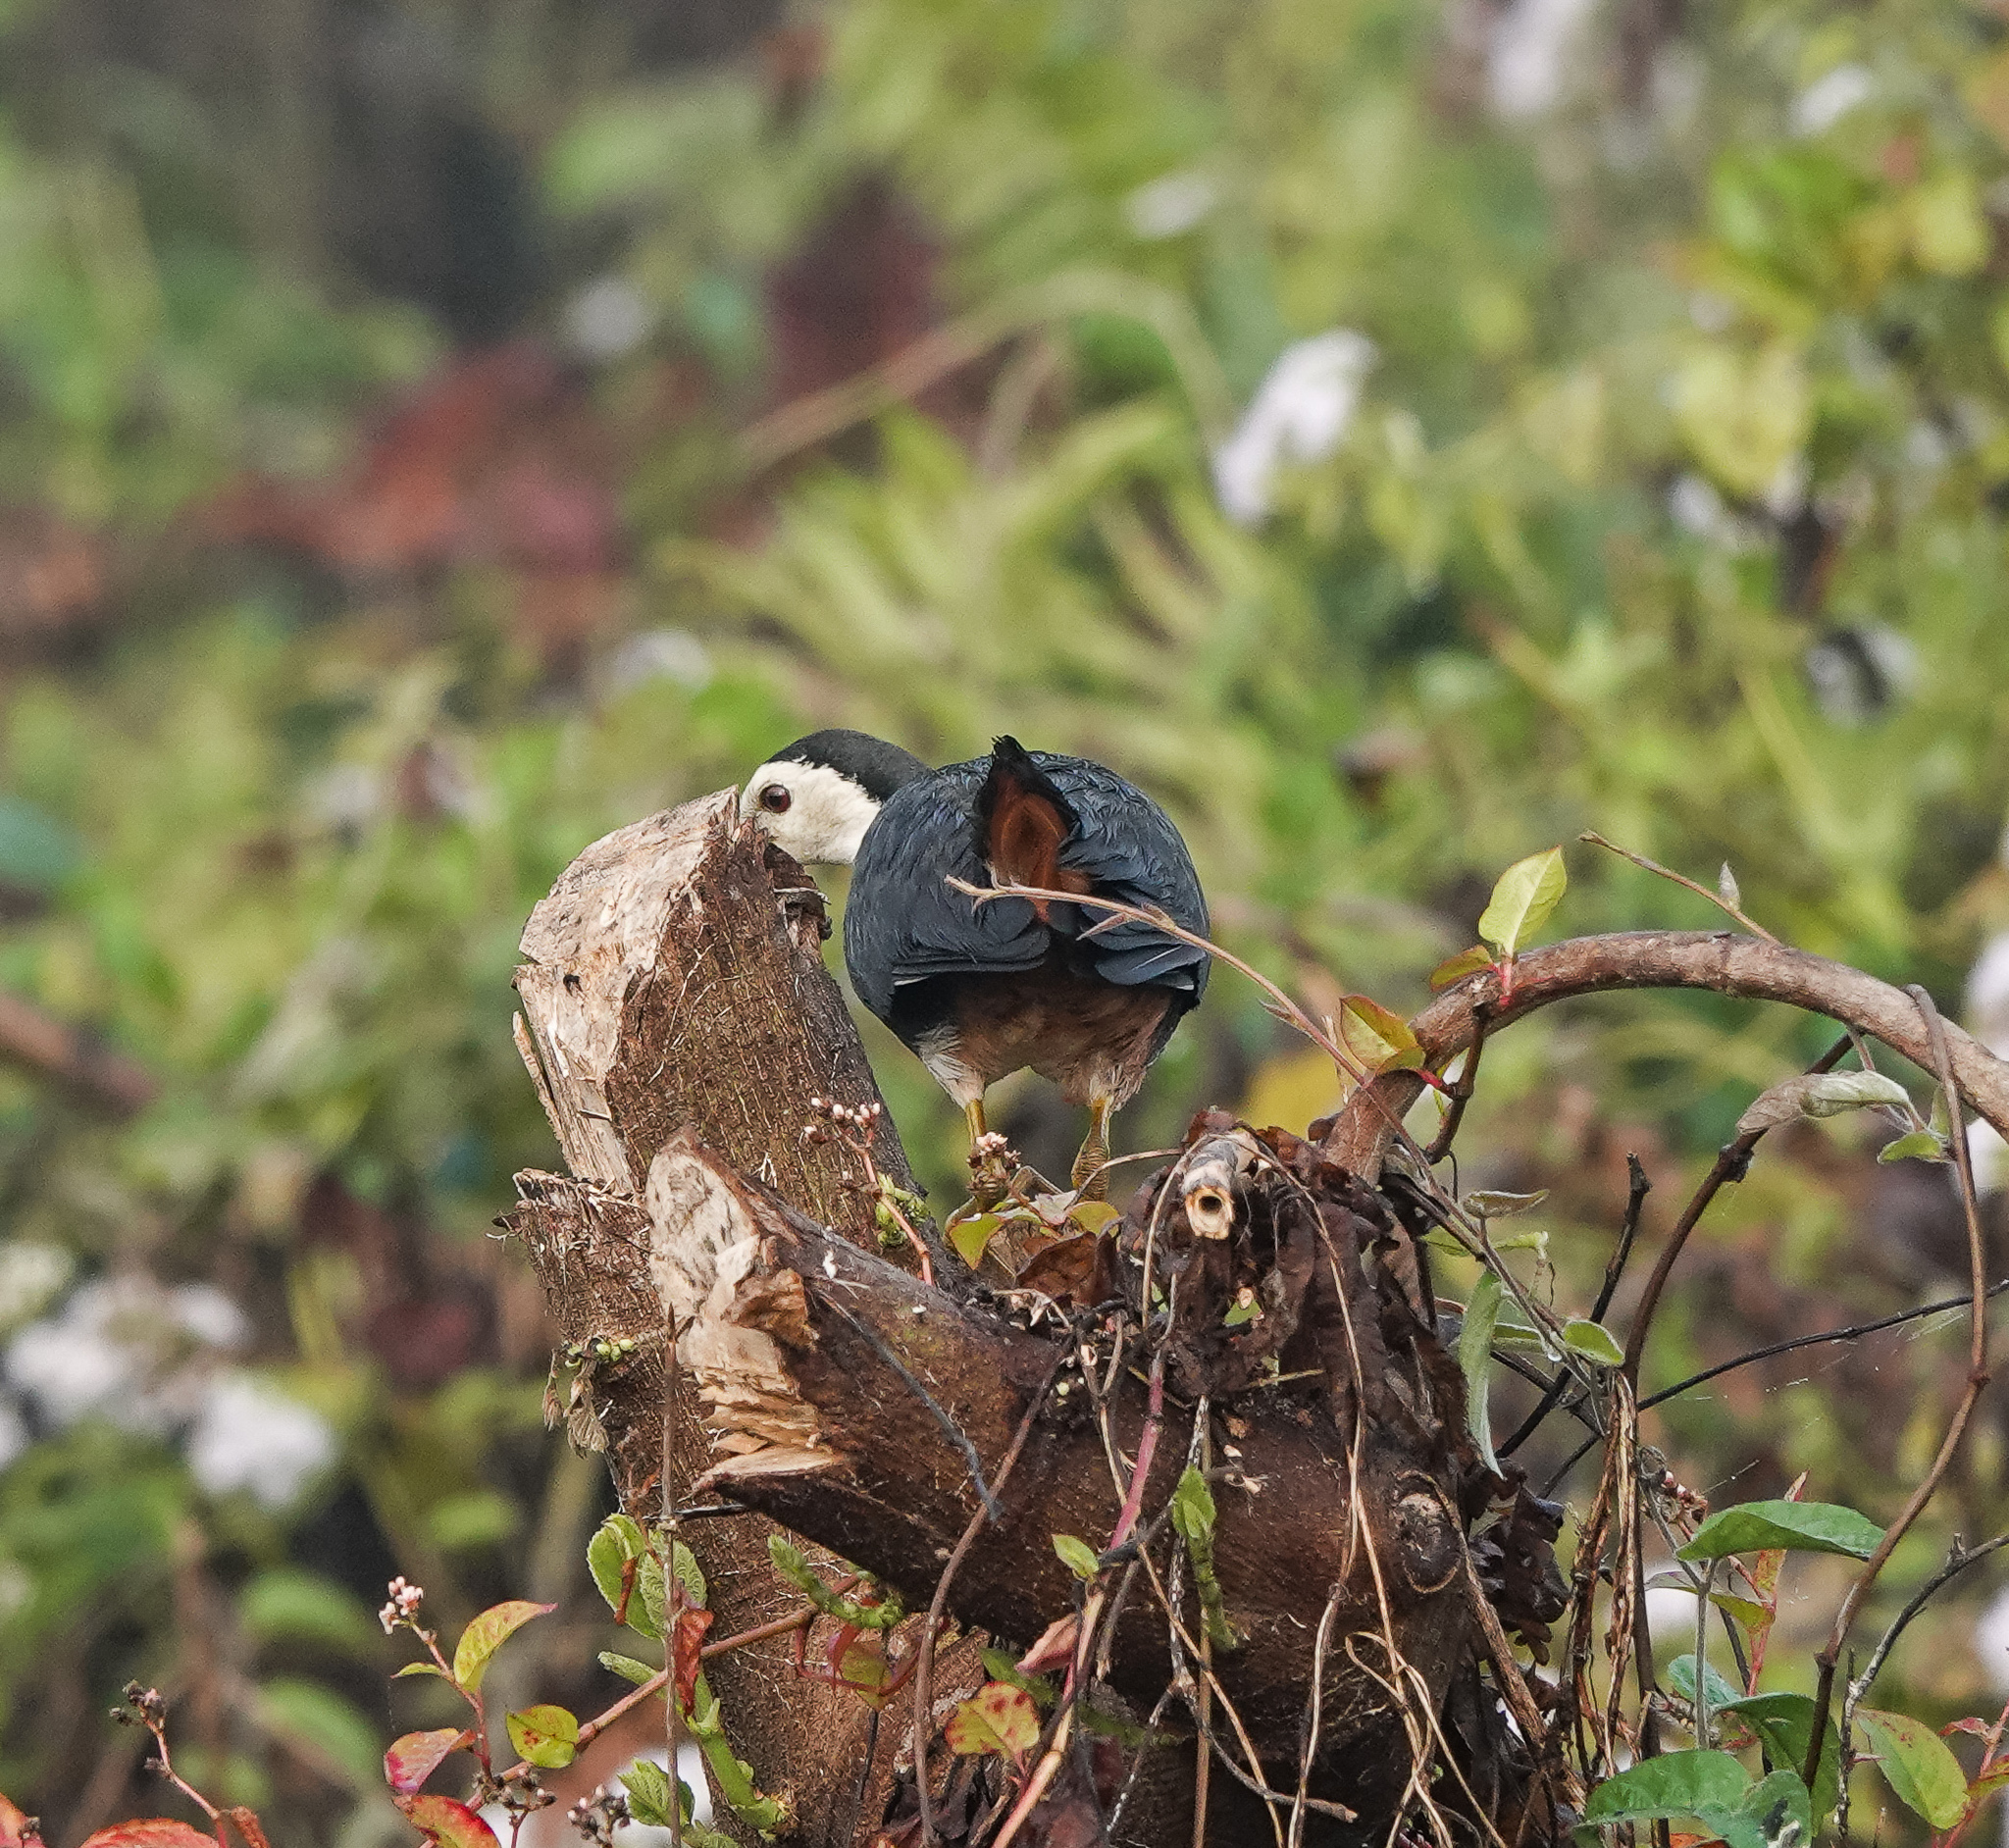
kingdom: Animalia
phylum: Chordata
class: Aves
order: Gruiformes
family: Rallidae
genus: Amaurornis
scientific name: Amaurornis phoenicurus
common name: White-breasted waterhen
